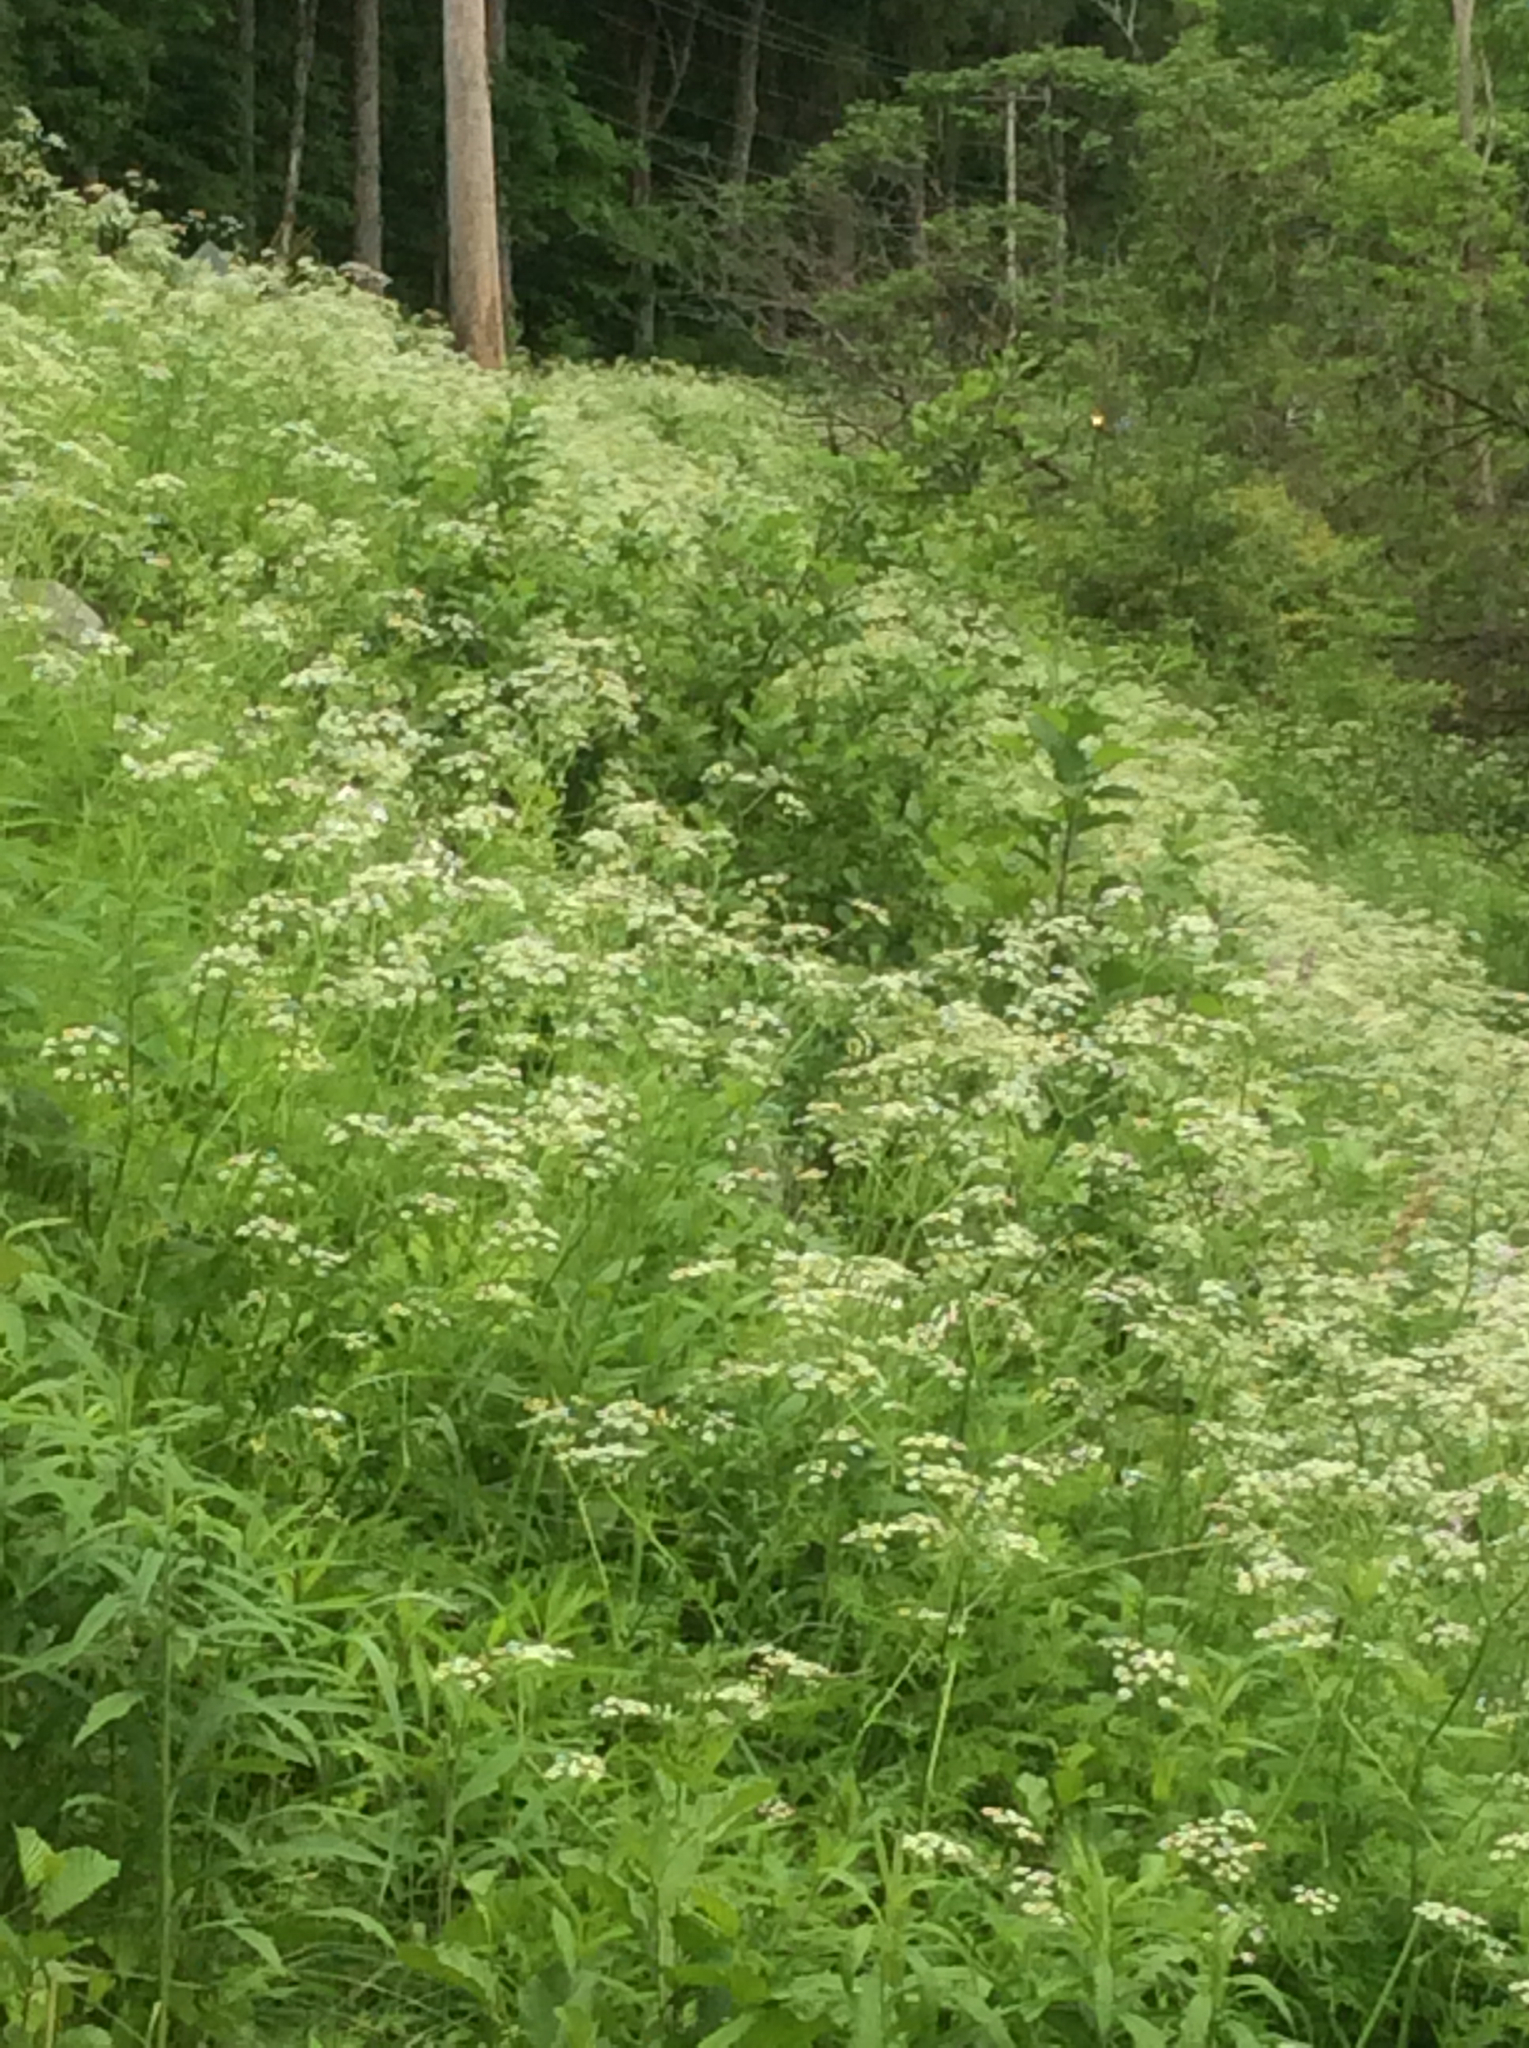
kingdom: Plantae
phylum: Tracheophyta
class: Magnoliopsida
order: Apiales
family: Apiaceae
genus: Anthriscus
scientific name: Anthriscus sylvestris
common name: Cow parsley
